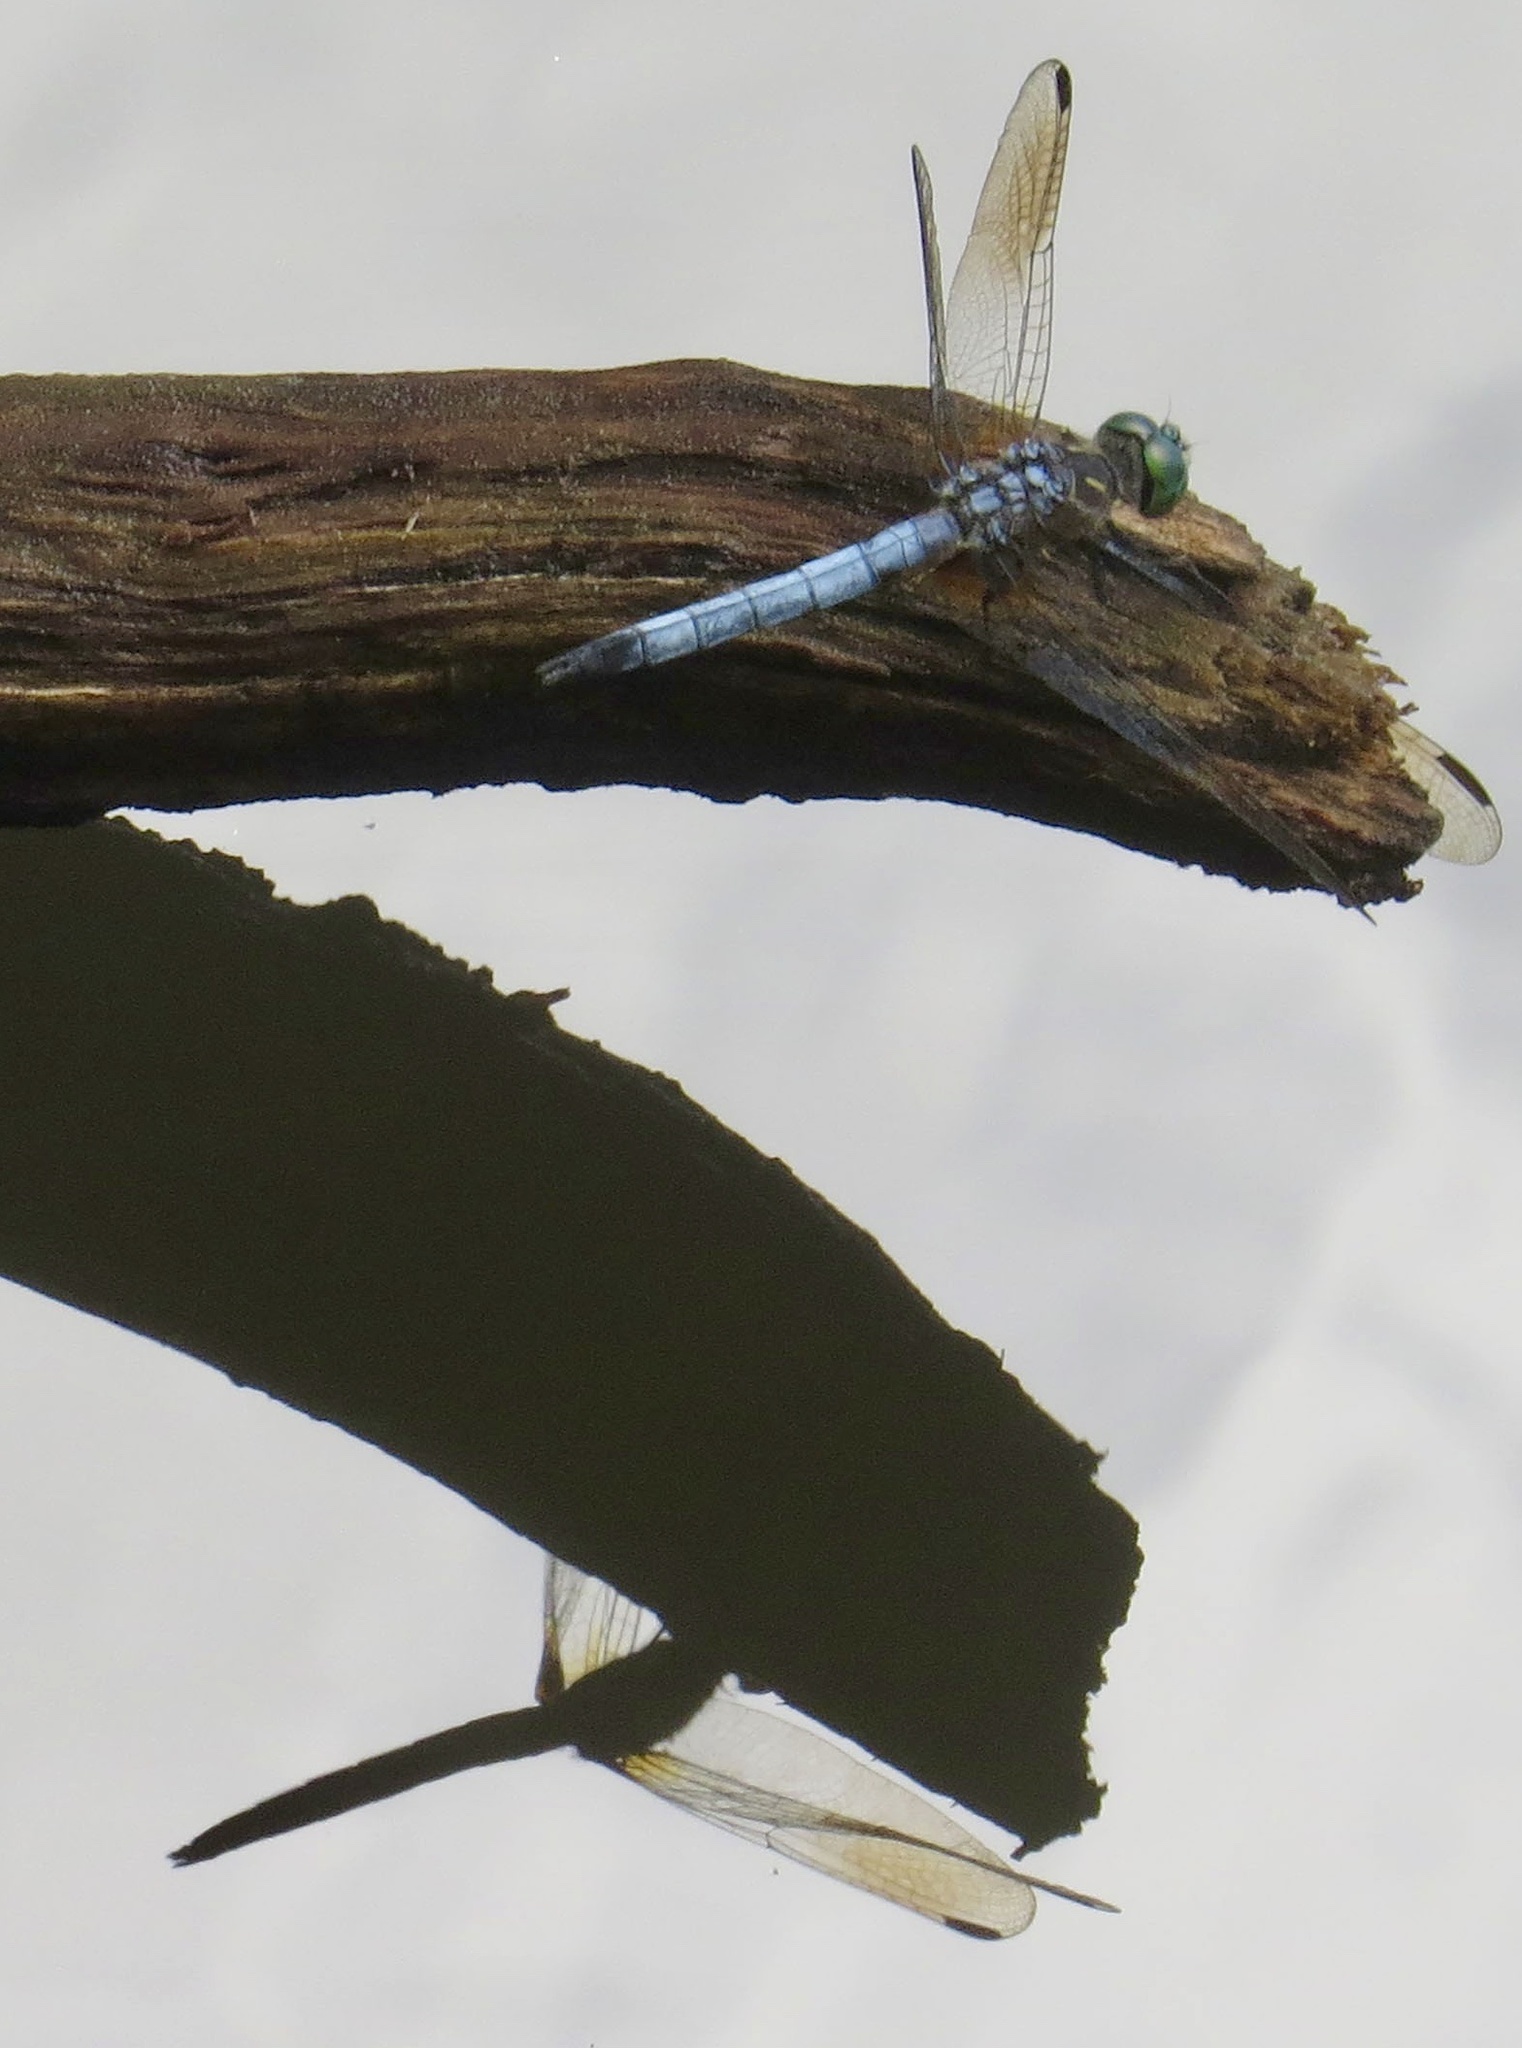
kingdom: Animalia
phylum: Arthropoda
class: Insecta
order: Odonata
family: Libellulidae
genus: Pachydiplax
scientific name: Pachydiplax longipennis
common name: Blue dasher
